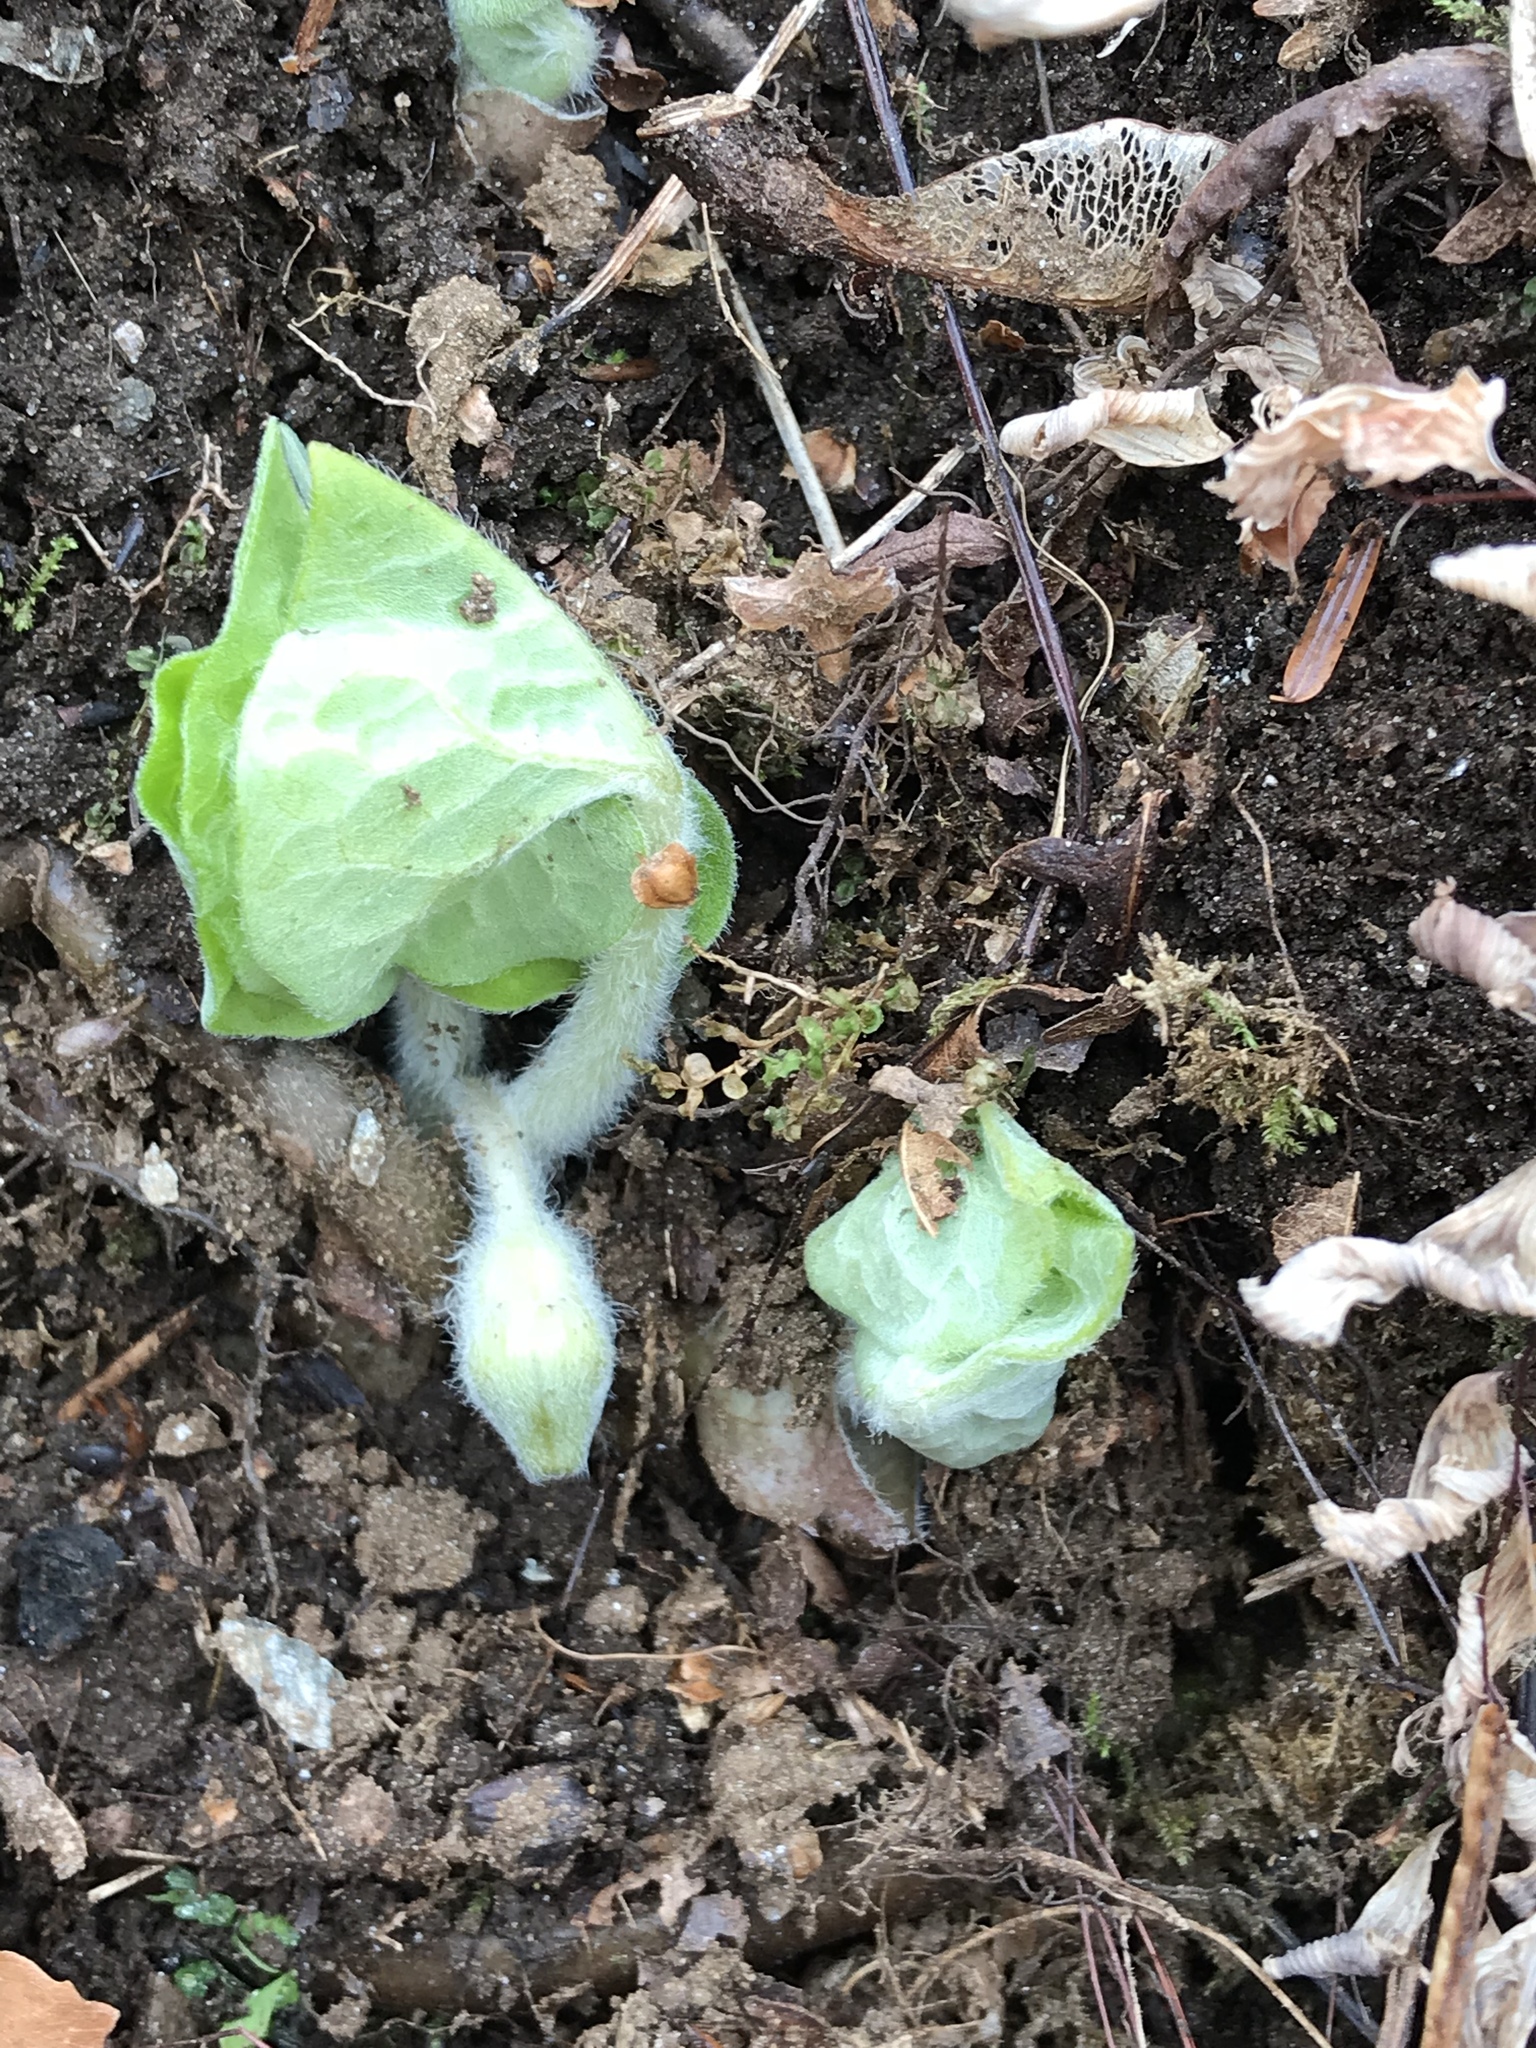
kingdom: Plantae
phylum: Tracheophyta
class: Magnoliopsida
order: Piperales
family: Aristolochiaceae
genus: Asarum
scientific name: Asarum canadense
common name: Wild ginger
